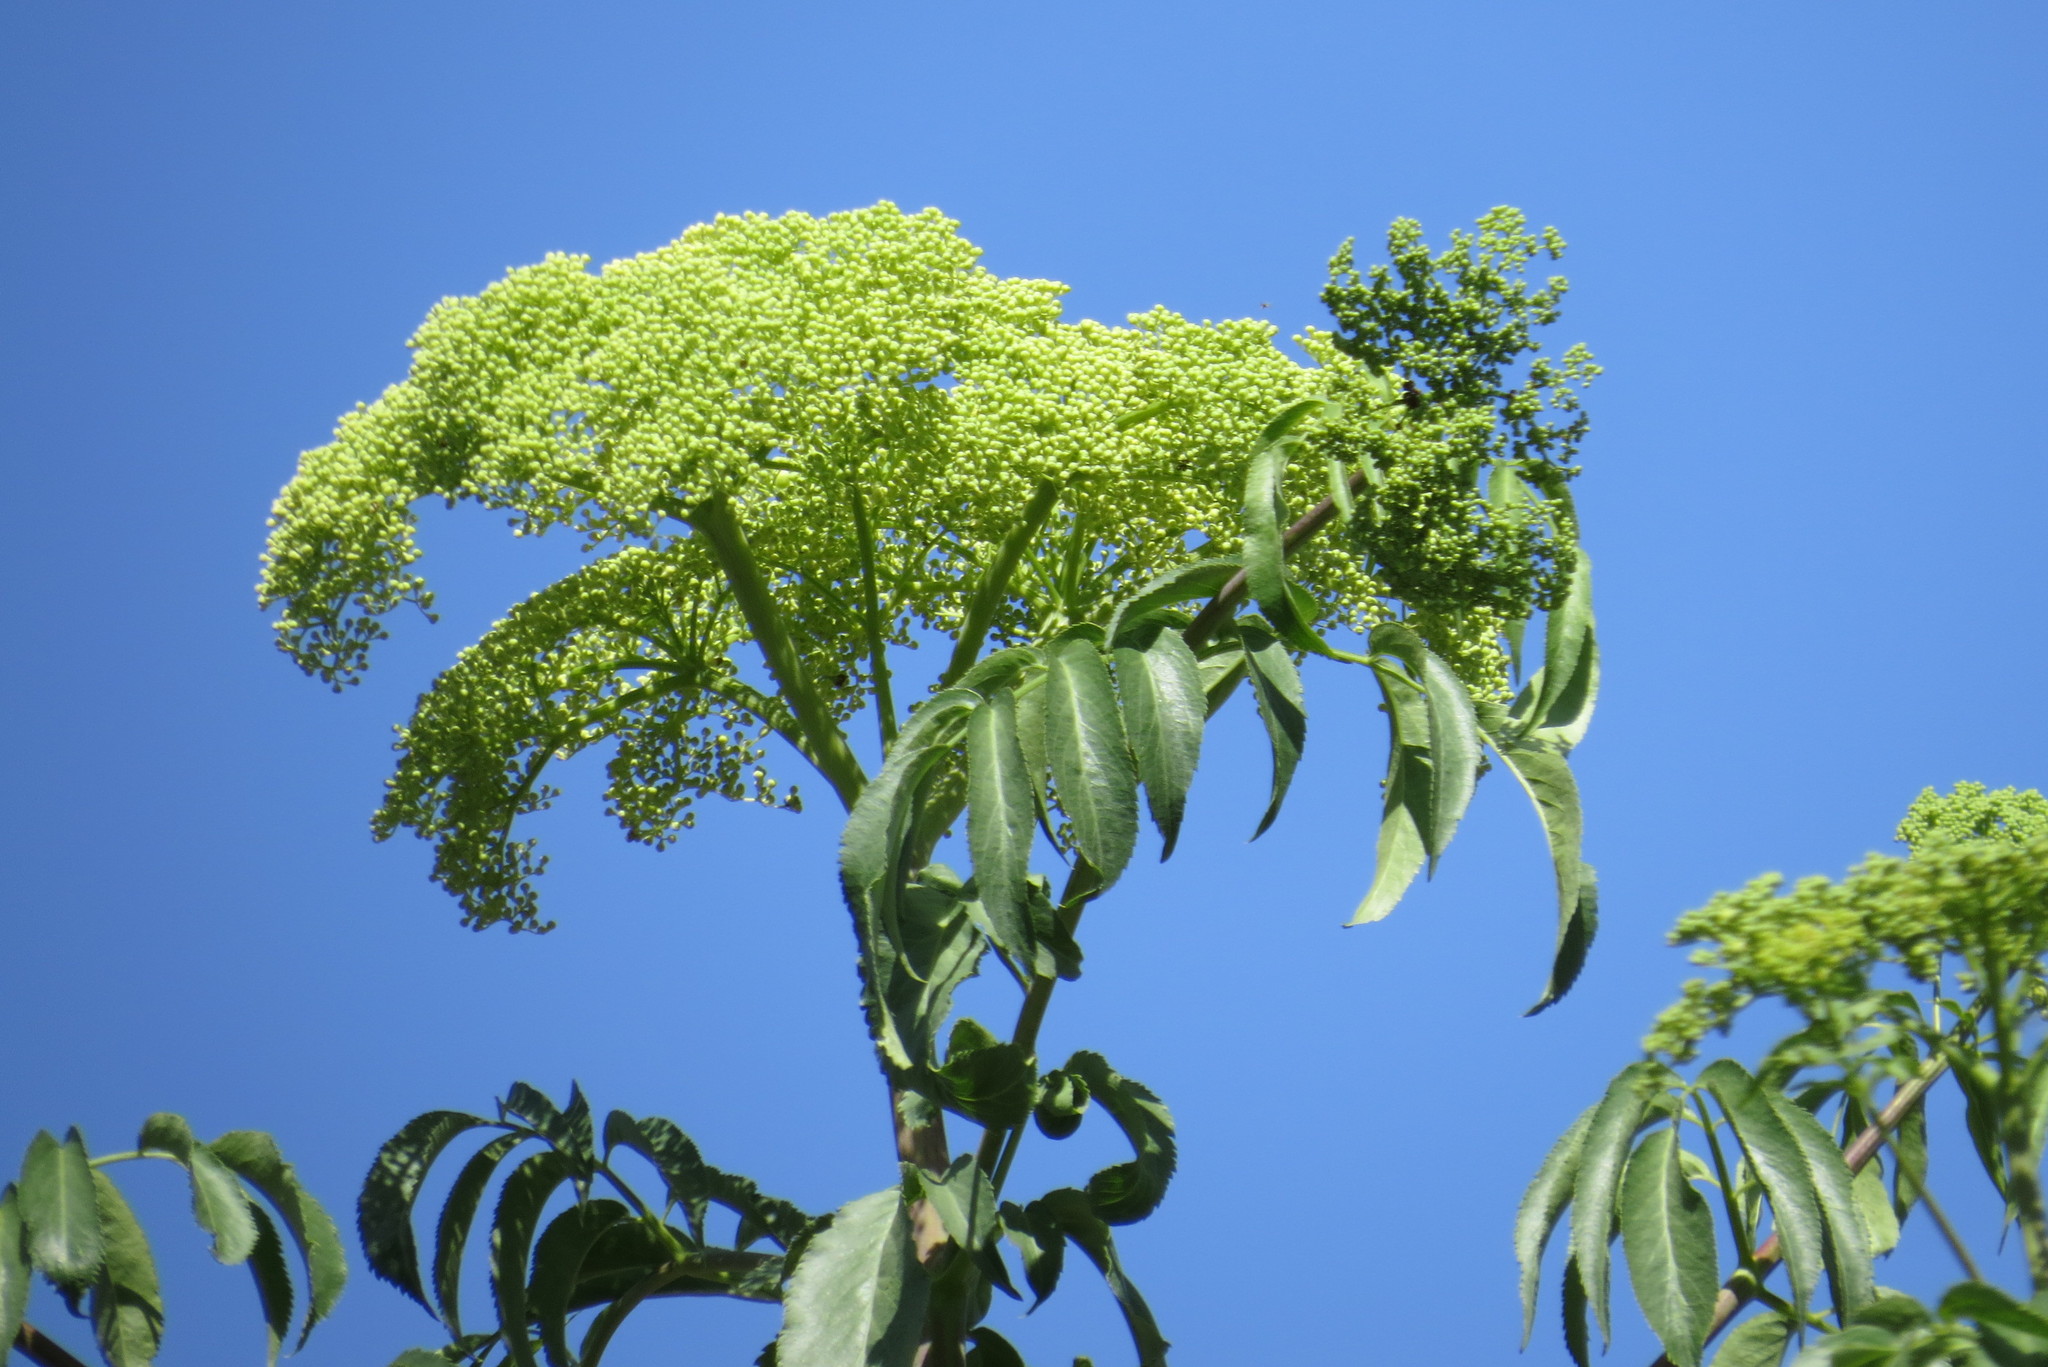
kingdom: Plantae
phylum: Tracheophyta
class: Magnoliopsida
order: Dipsacales
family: Viburnaceae
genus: Sambucus
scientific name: Sambucus cerulea
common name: Blue elder
